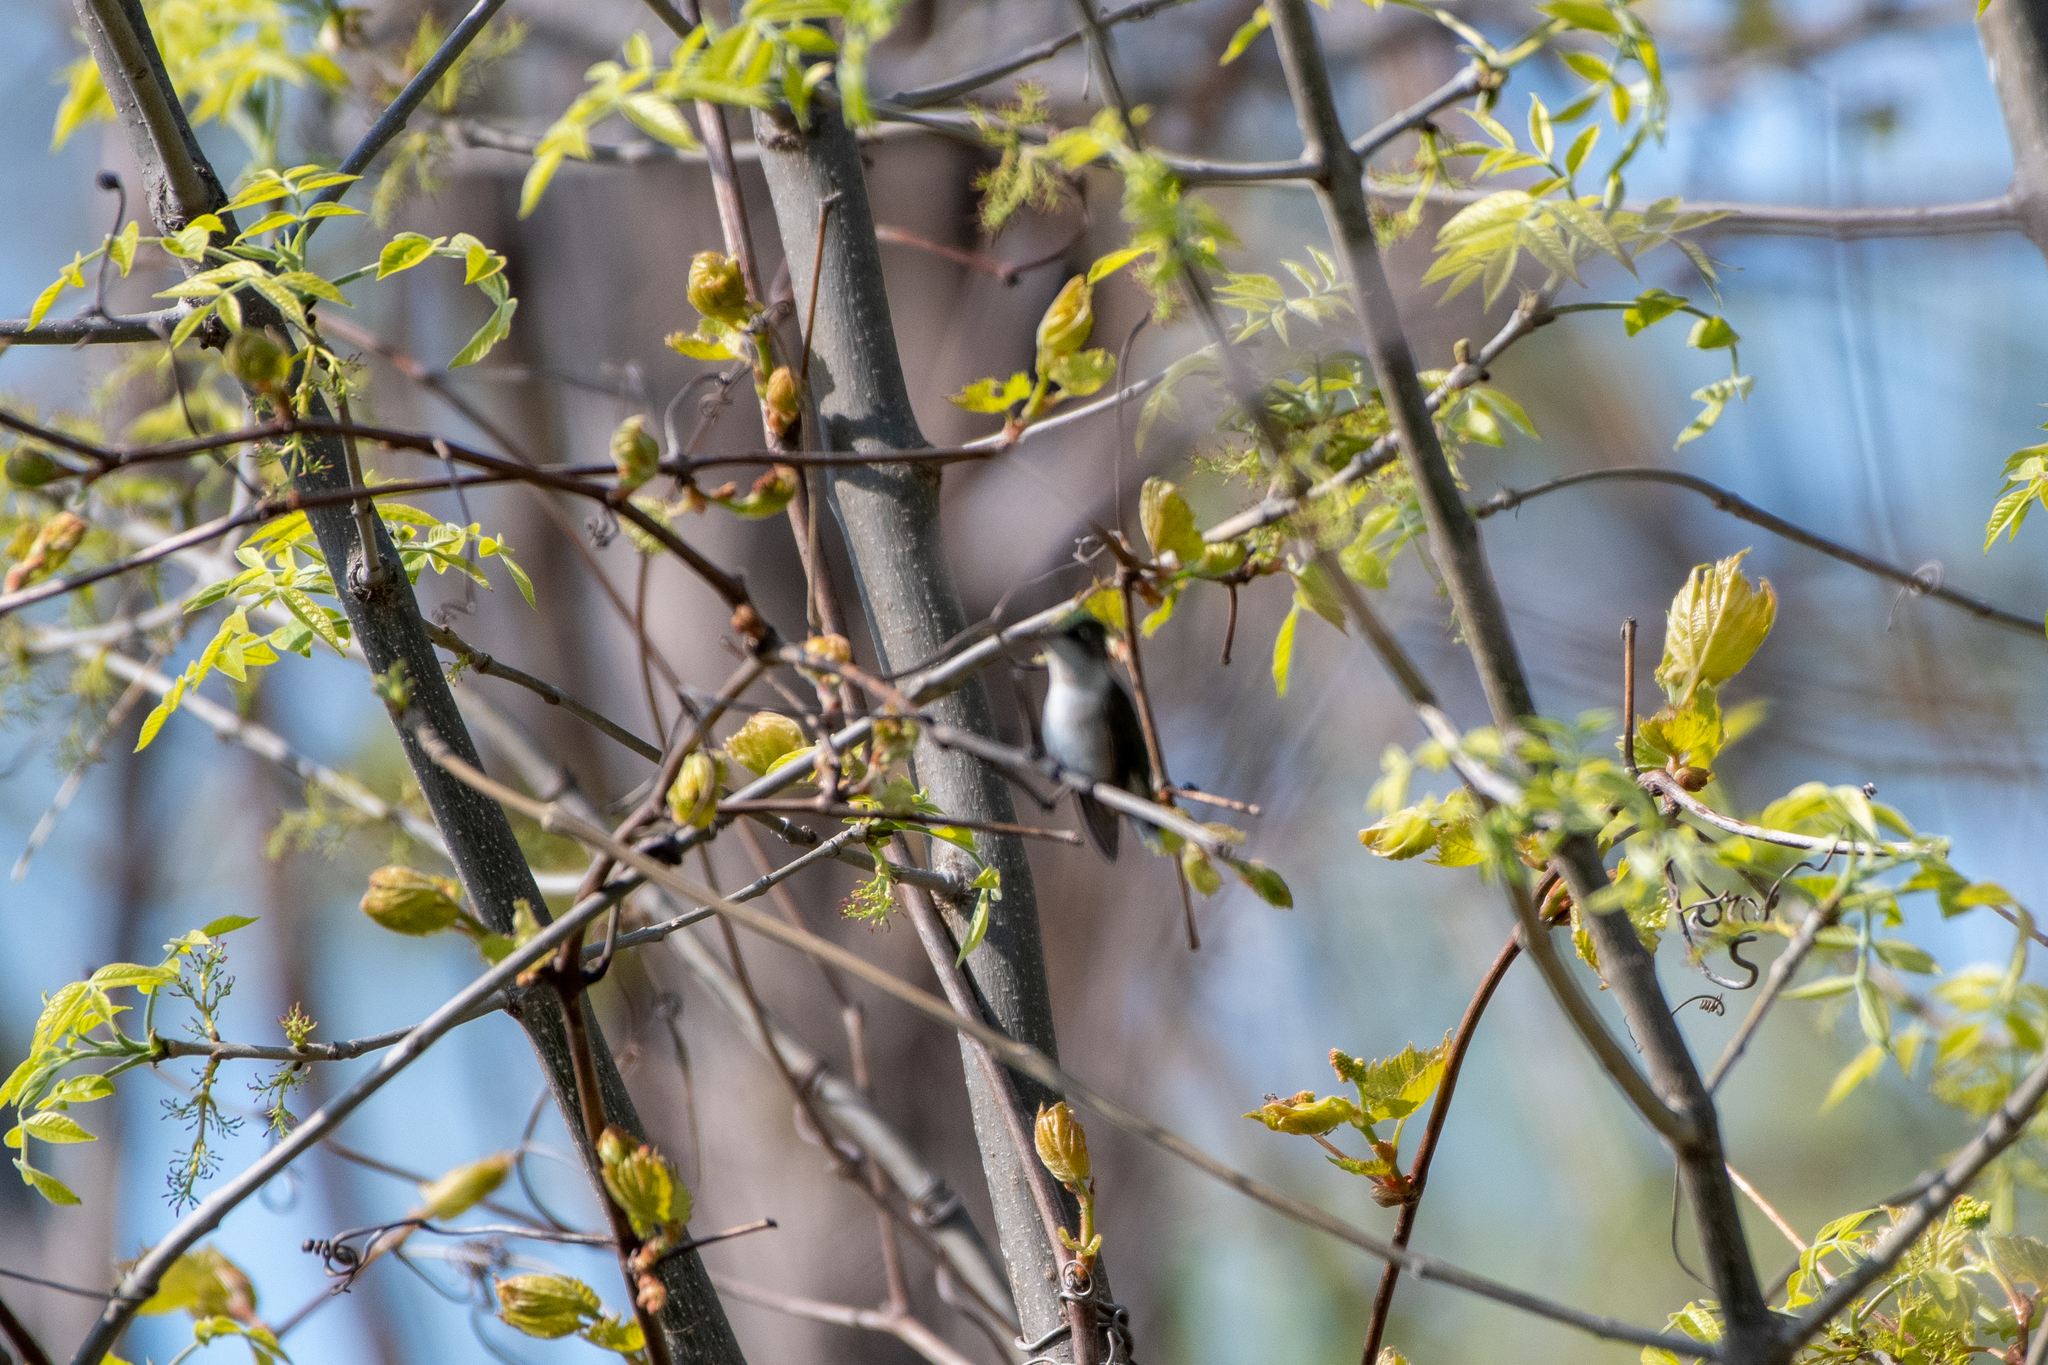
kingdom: Animalia
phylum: Chordata
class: Aves
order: Apodiformes
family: Trochilidae
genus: Archilochus
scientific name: Archilochus colubris
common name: Ruby-throated hummingbird
